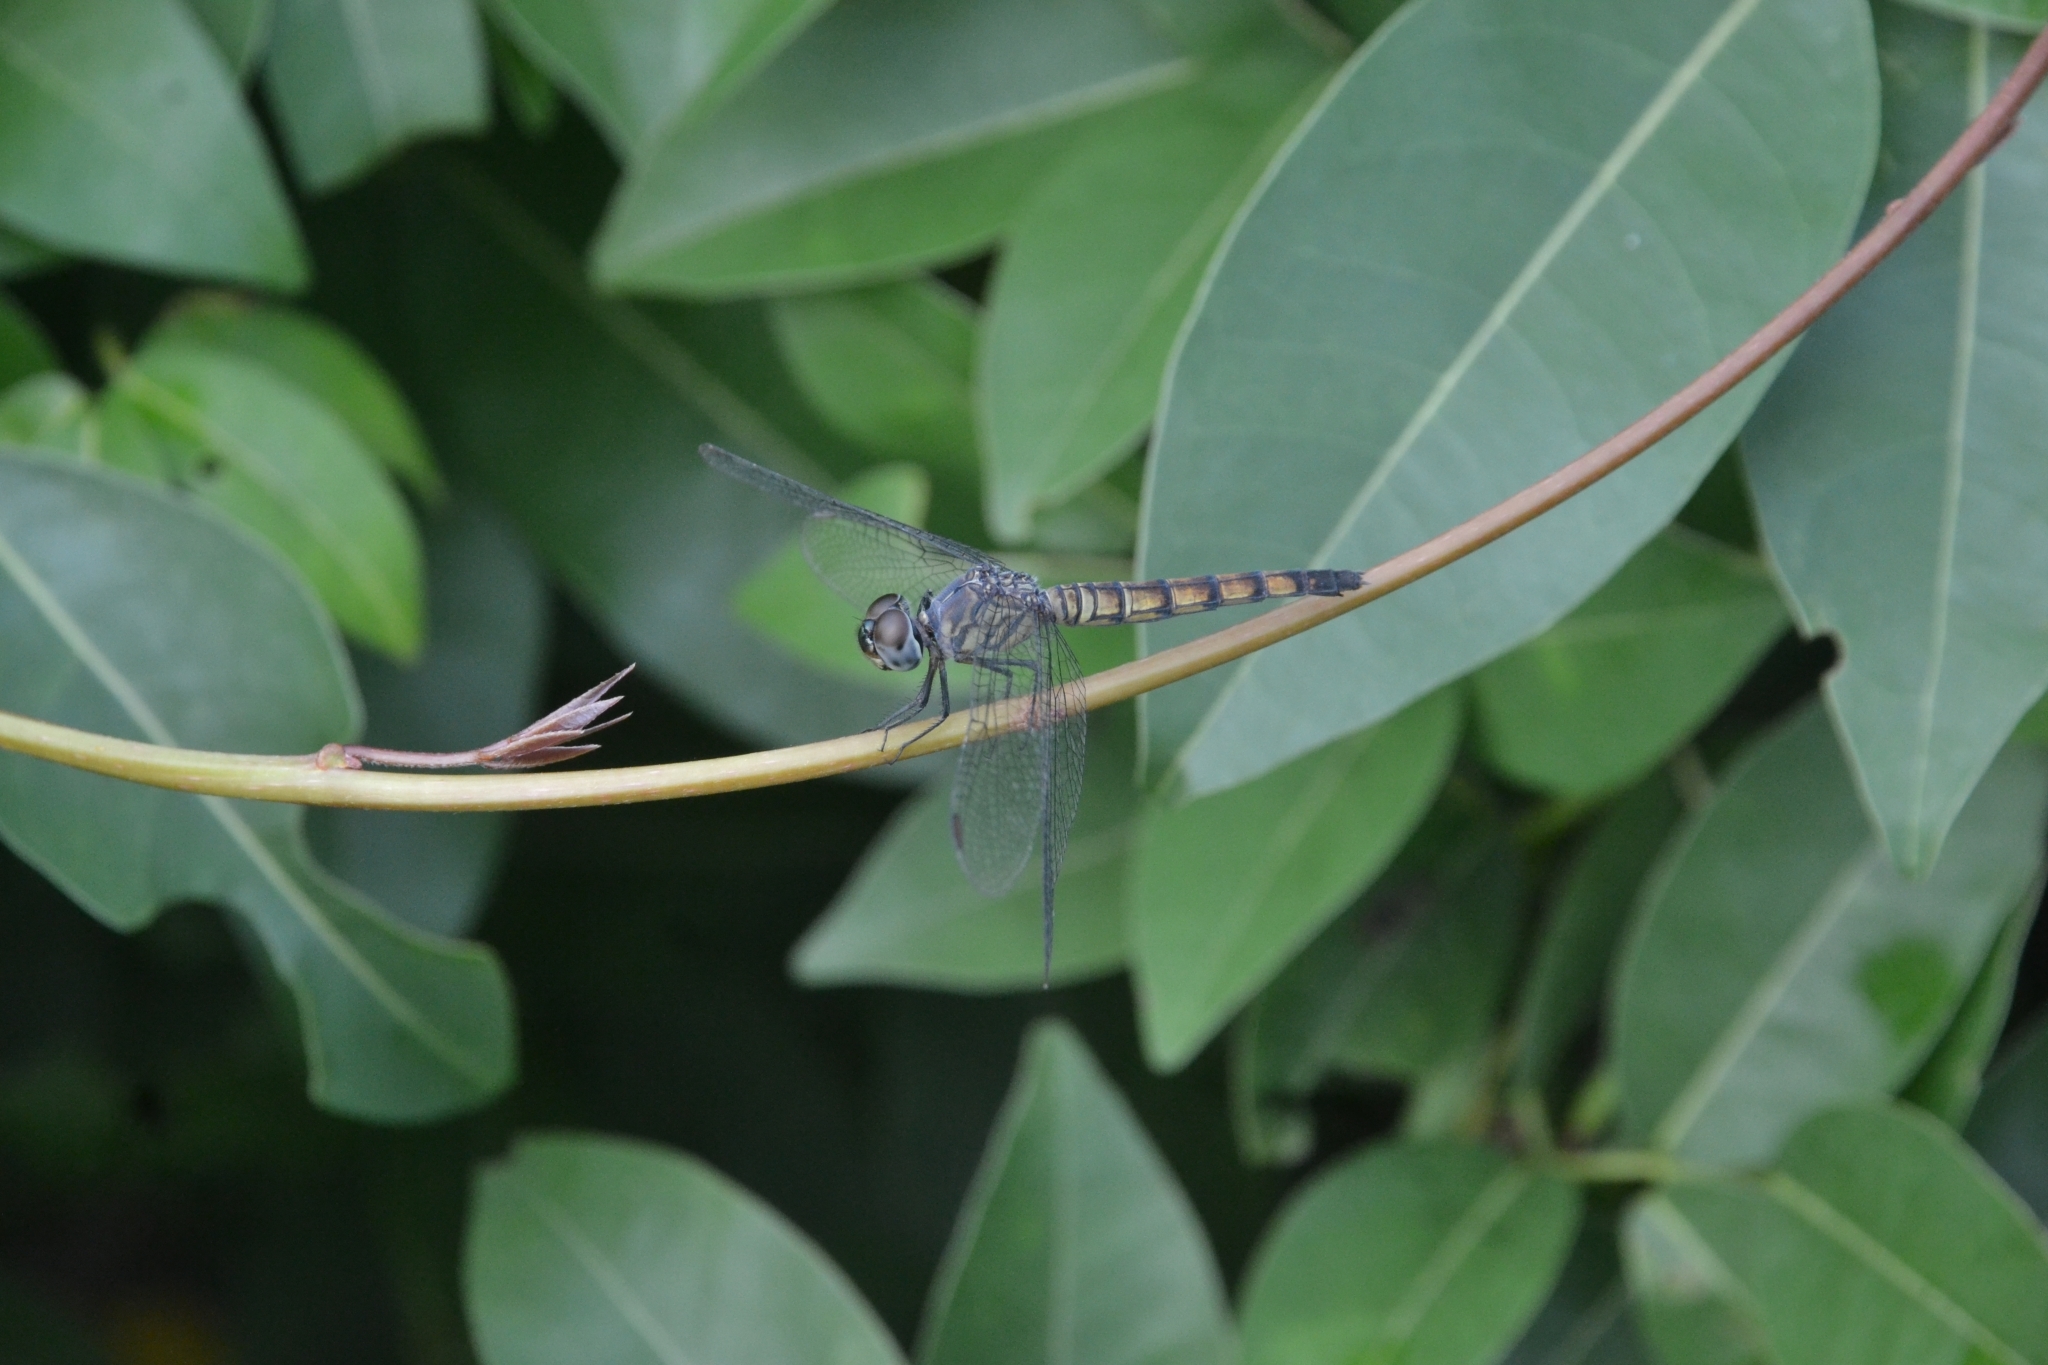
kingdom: Animalia
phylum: Arthropoda
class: Insecta
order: Odonata
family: Libellulidae
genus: Brachydiplax
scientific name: Brachydiplax chalybea
